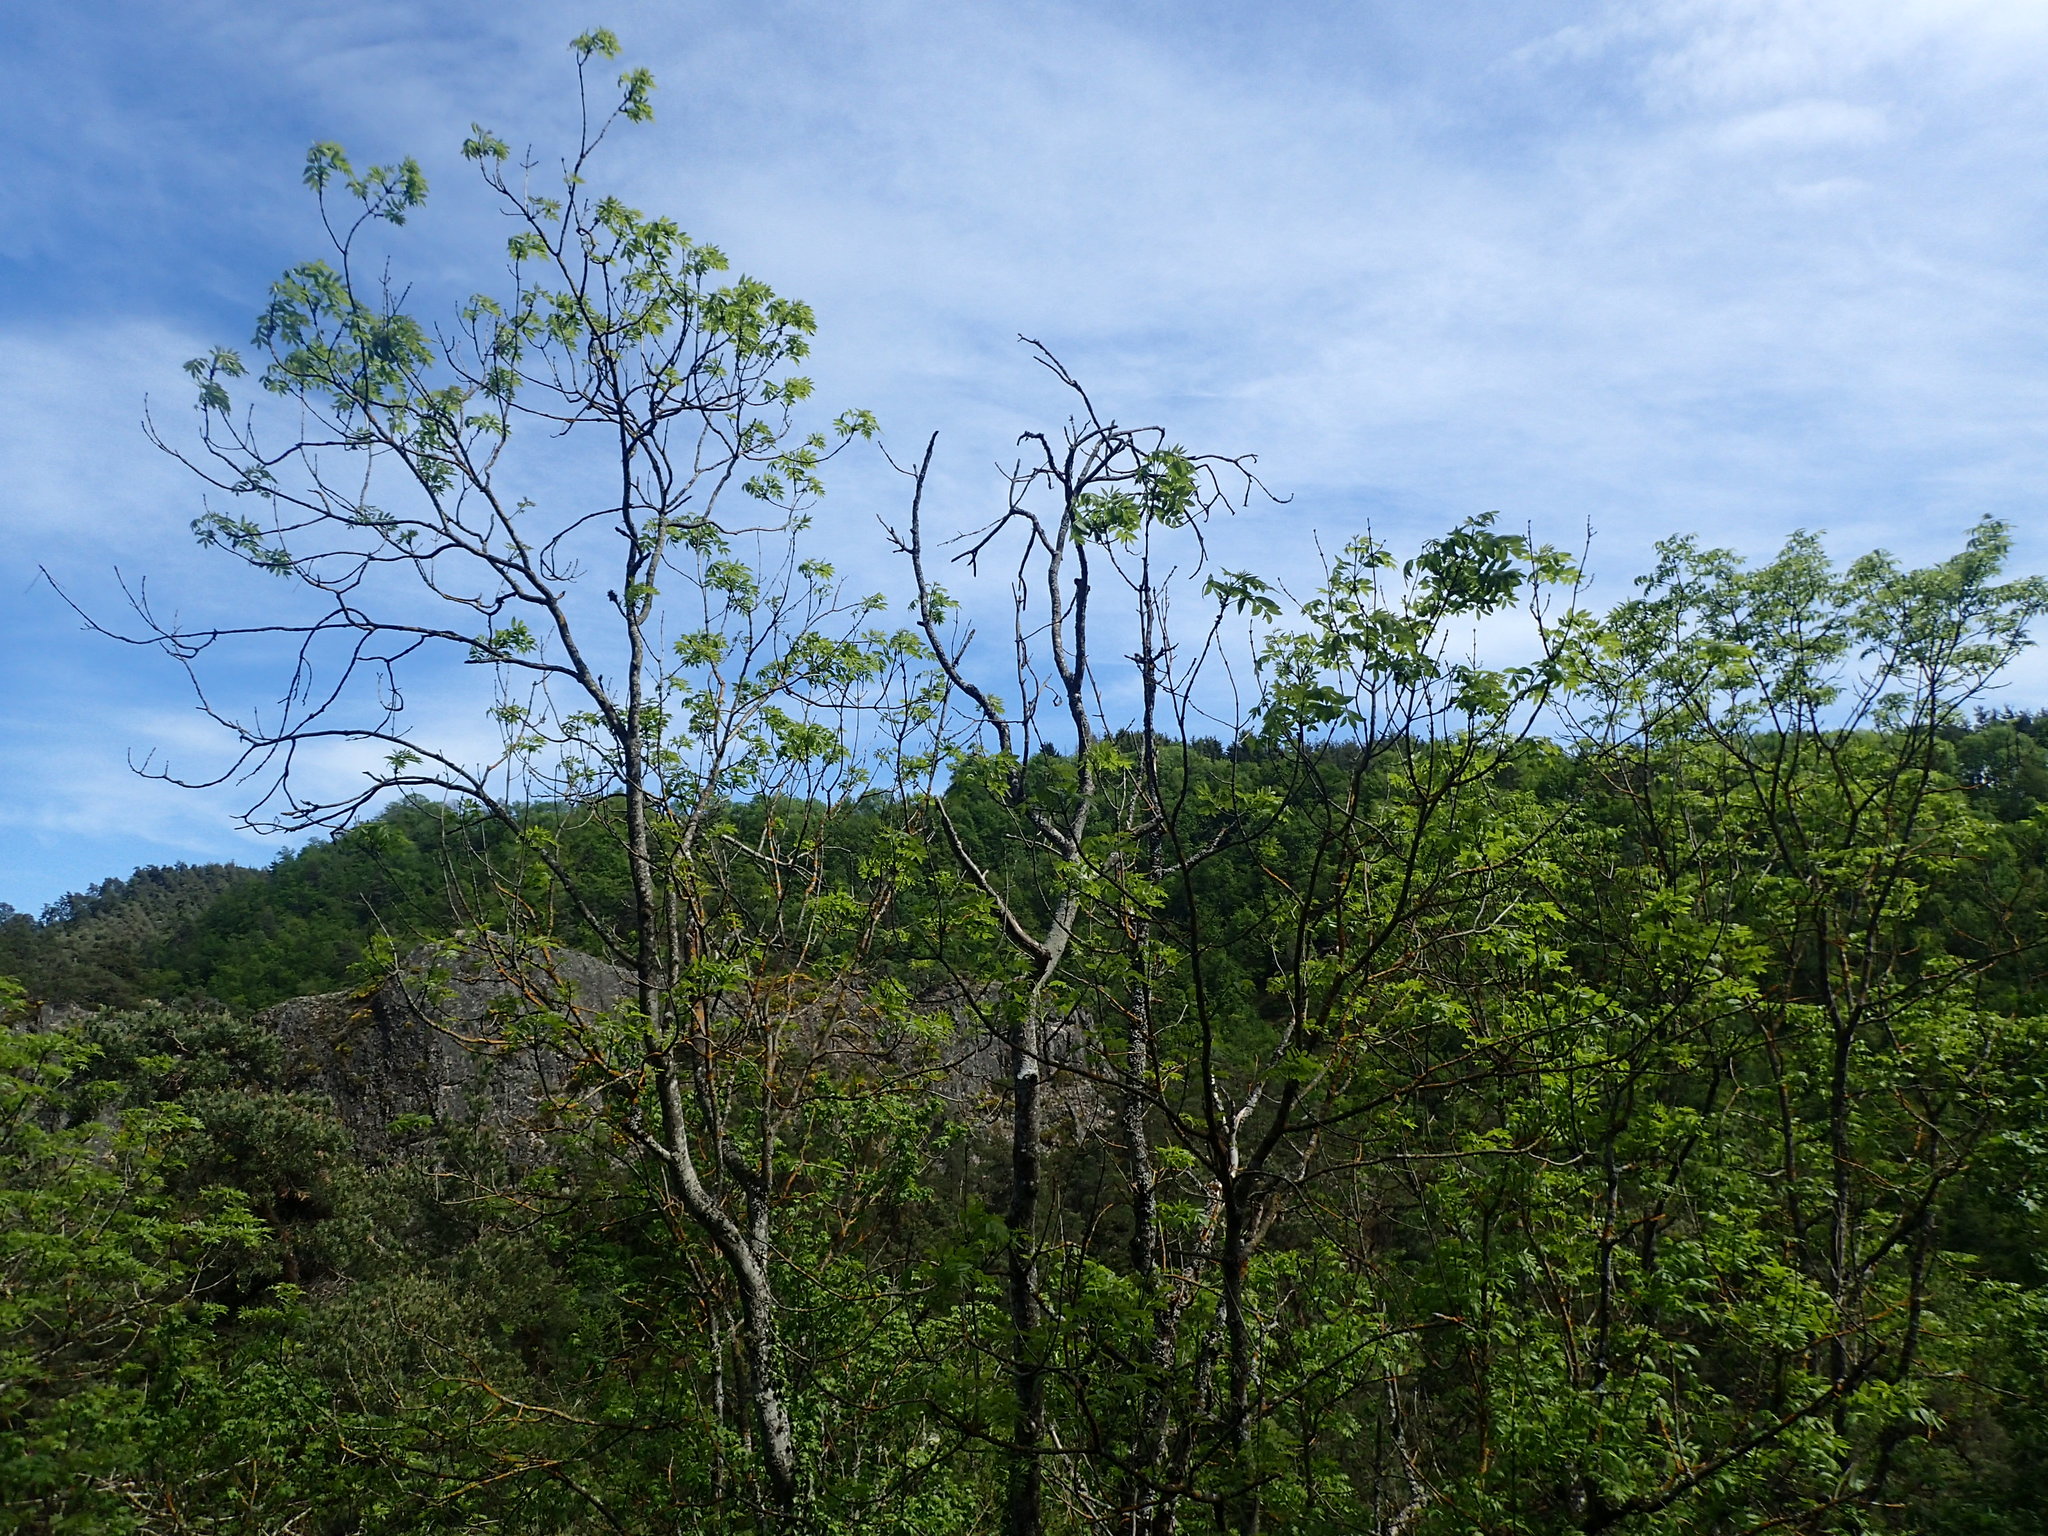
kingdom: Fungi
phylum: Ascomycota
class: Leotiomycetes
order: Helotiales
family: Helotiaceae
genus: Hymenoscyphus
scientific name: Hymenoscyphus fraxineus
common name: Ash dieback
